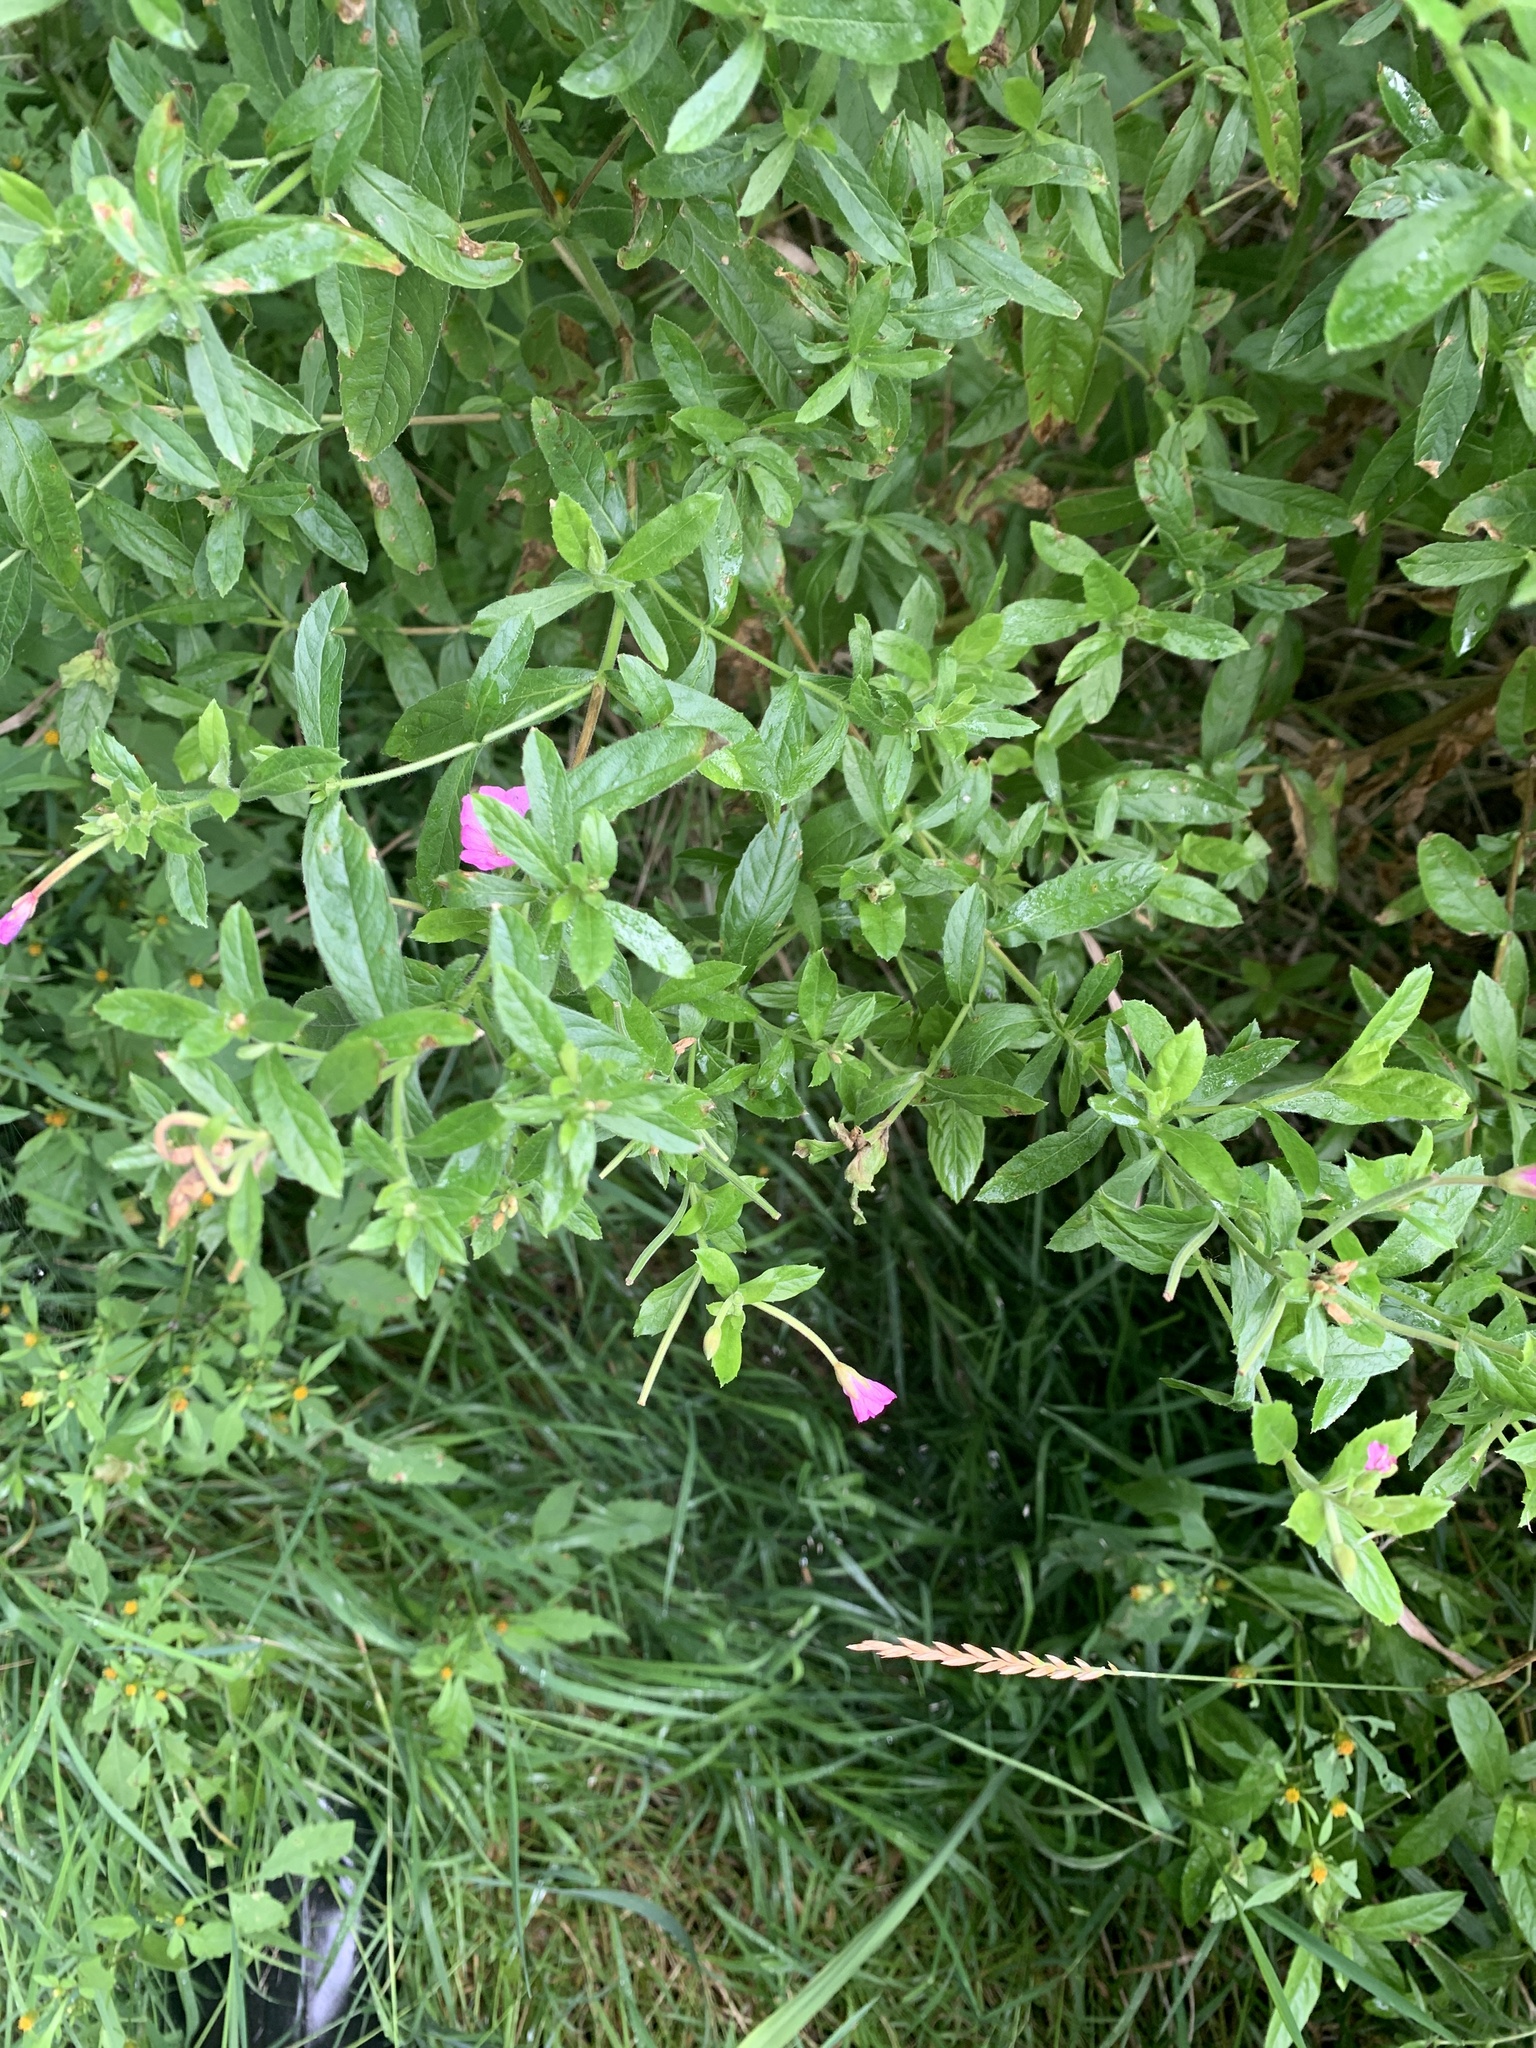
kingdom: Plantae
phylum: Tracheophyta
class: Magnoliopsida
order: Myrtales
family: Onagraceae
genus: Epilobium
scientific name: Epilobium hirsutum
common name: Great willowherb
